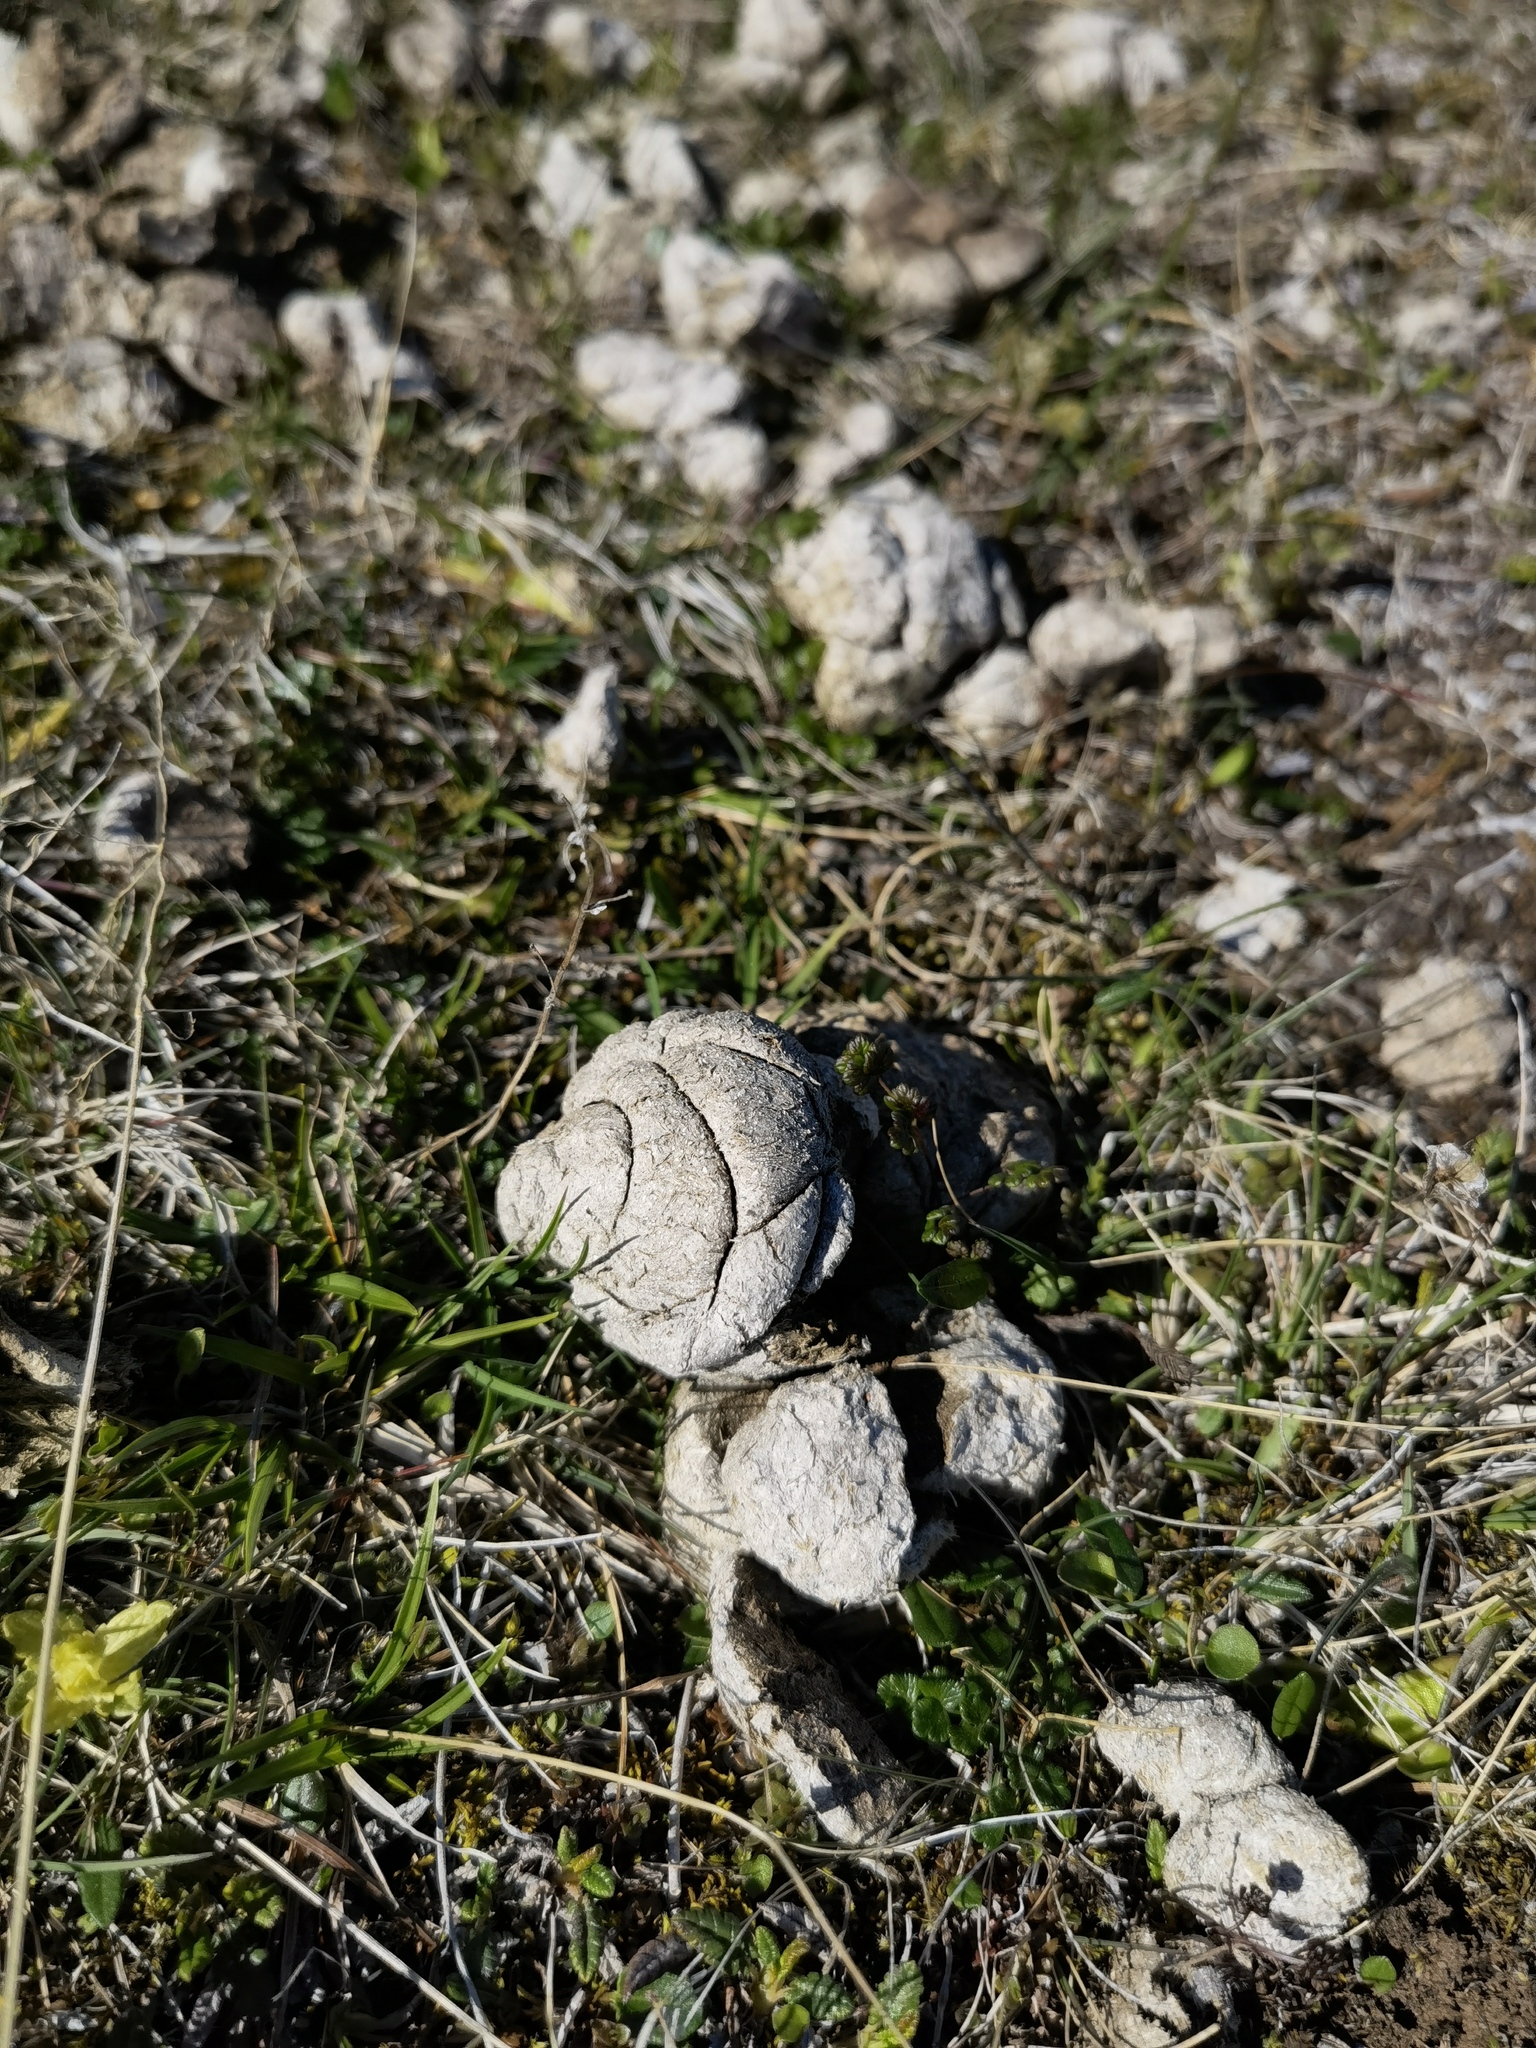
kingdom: Animalia
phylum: Chordata
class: Mammalia
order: Artiodactyla
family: Bovidae
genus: Ovis
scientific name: Ovis aries
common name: Domestic sheep
